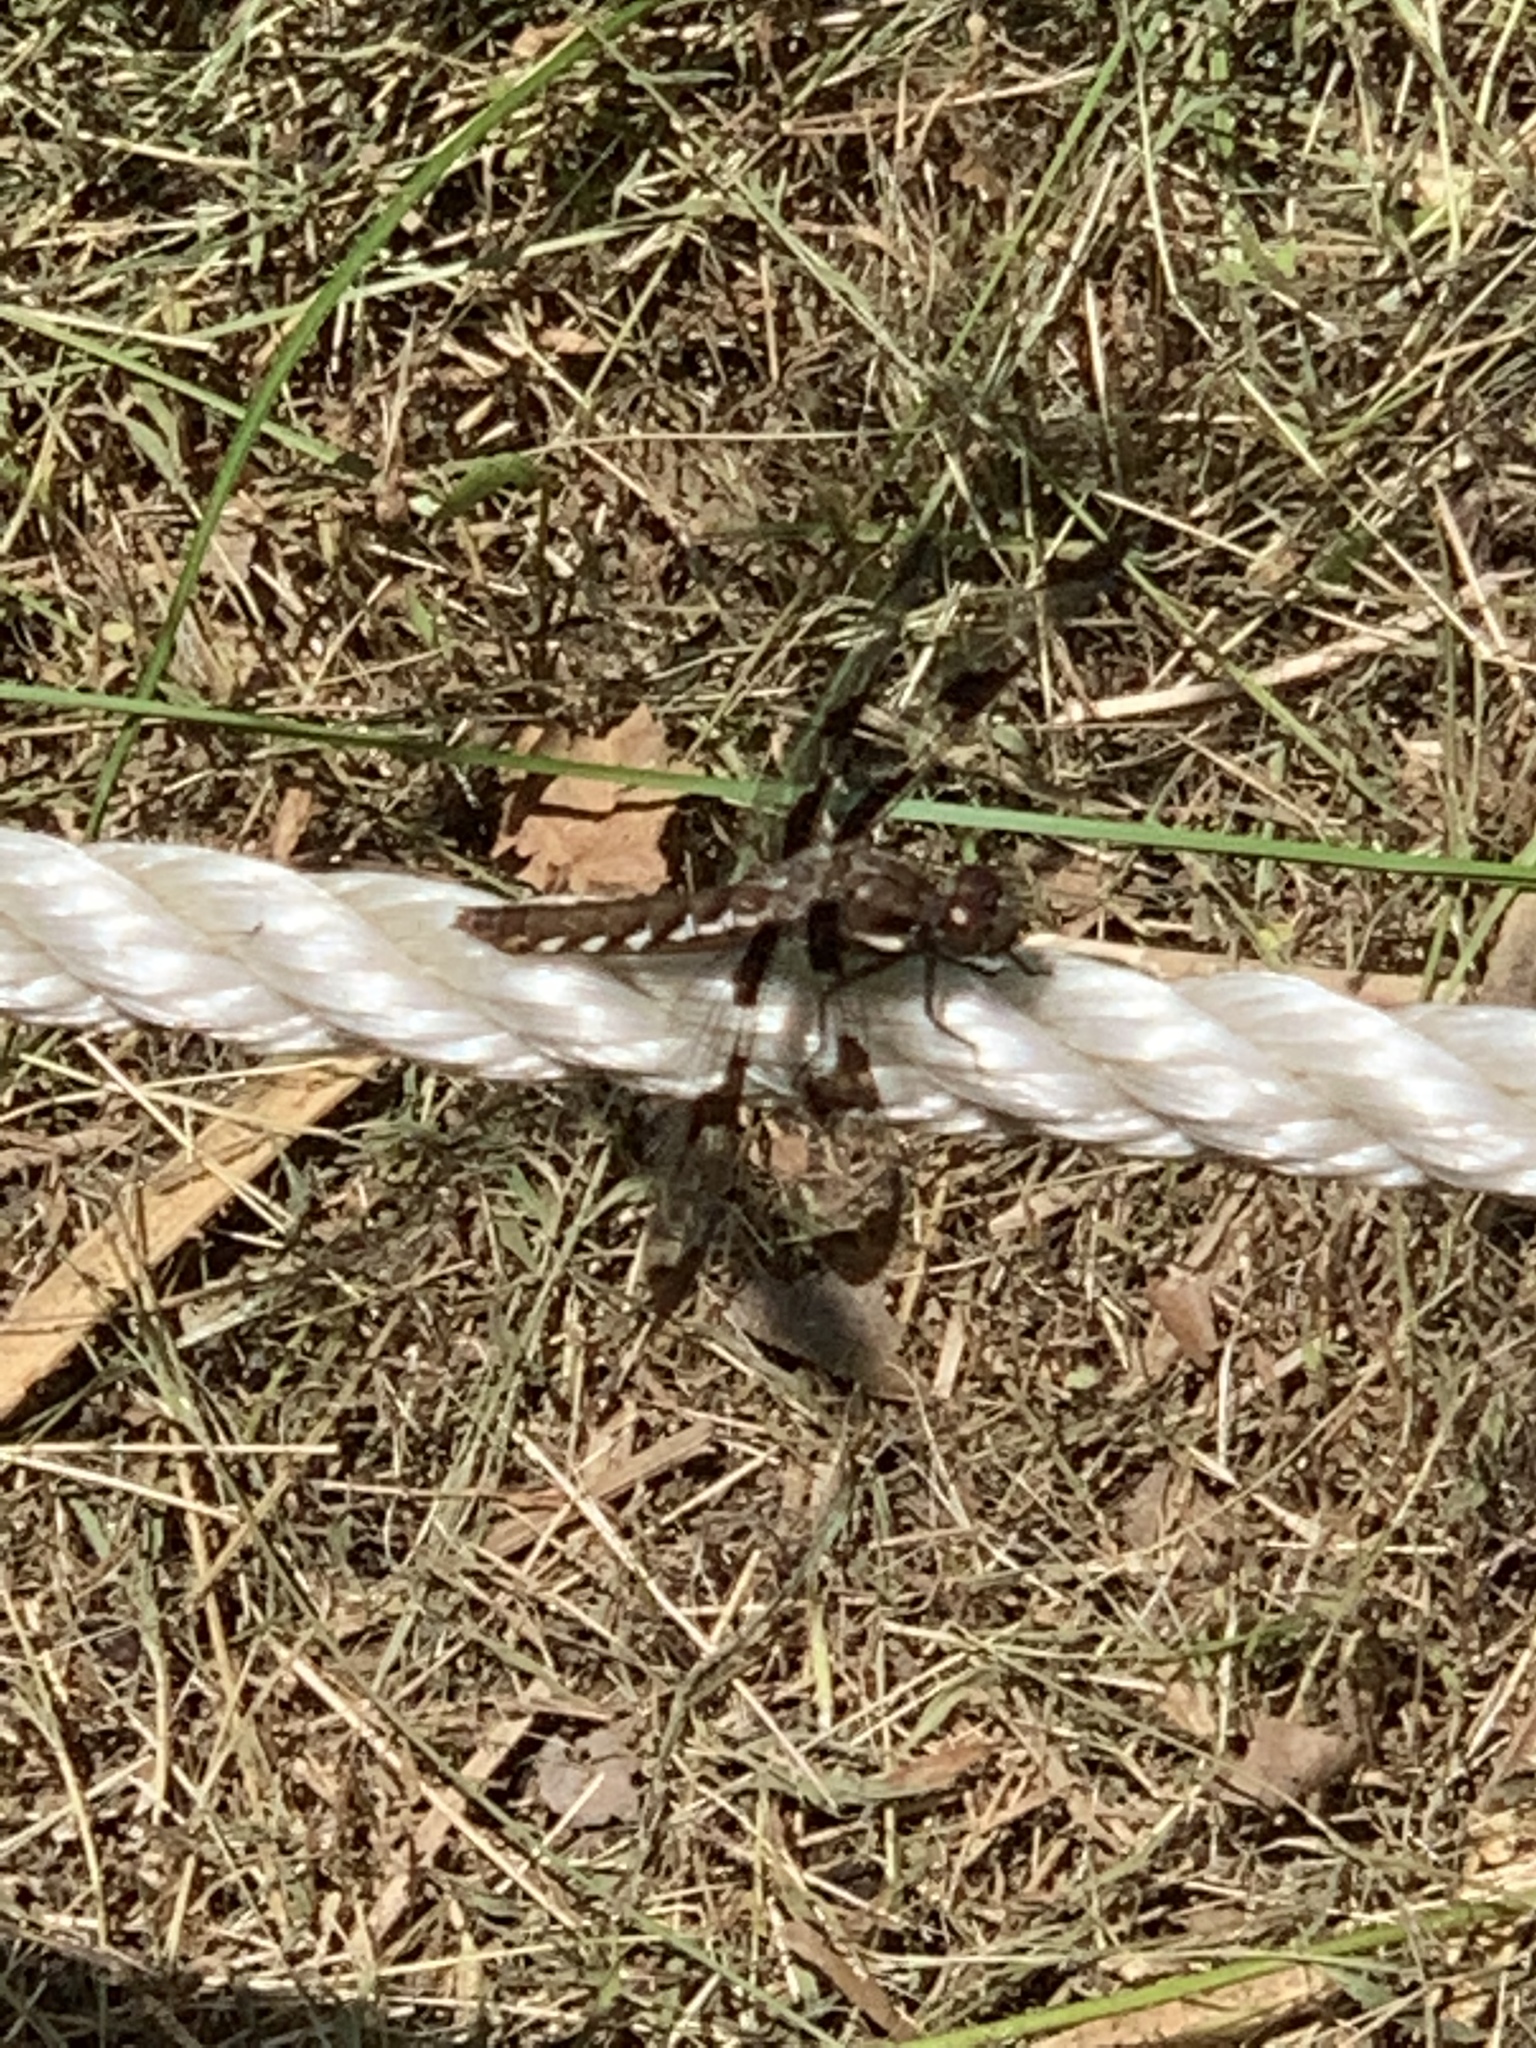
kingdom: Animalia
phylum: Arthropoda
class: Insecta
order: Odonata
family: Libellulidae
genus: Plathemis
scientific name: Plathemis lydia
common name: Common whitetail
